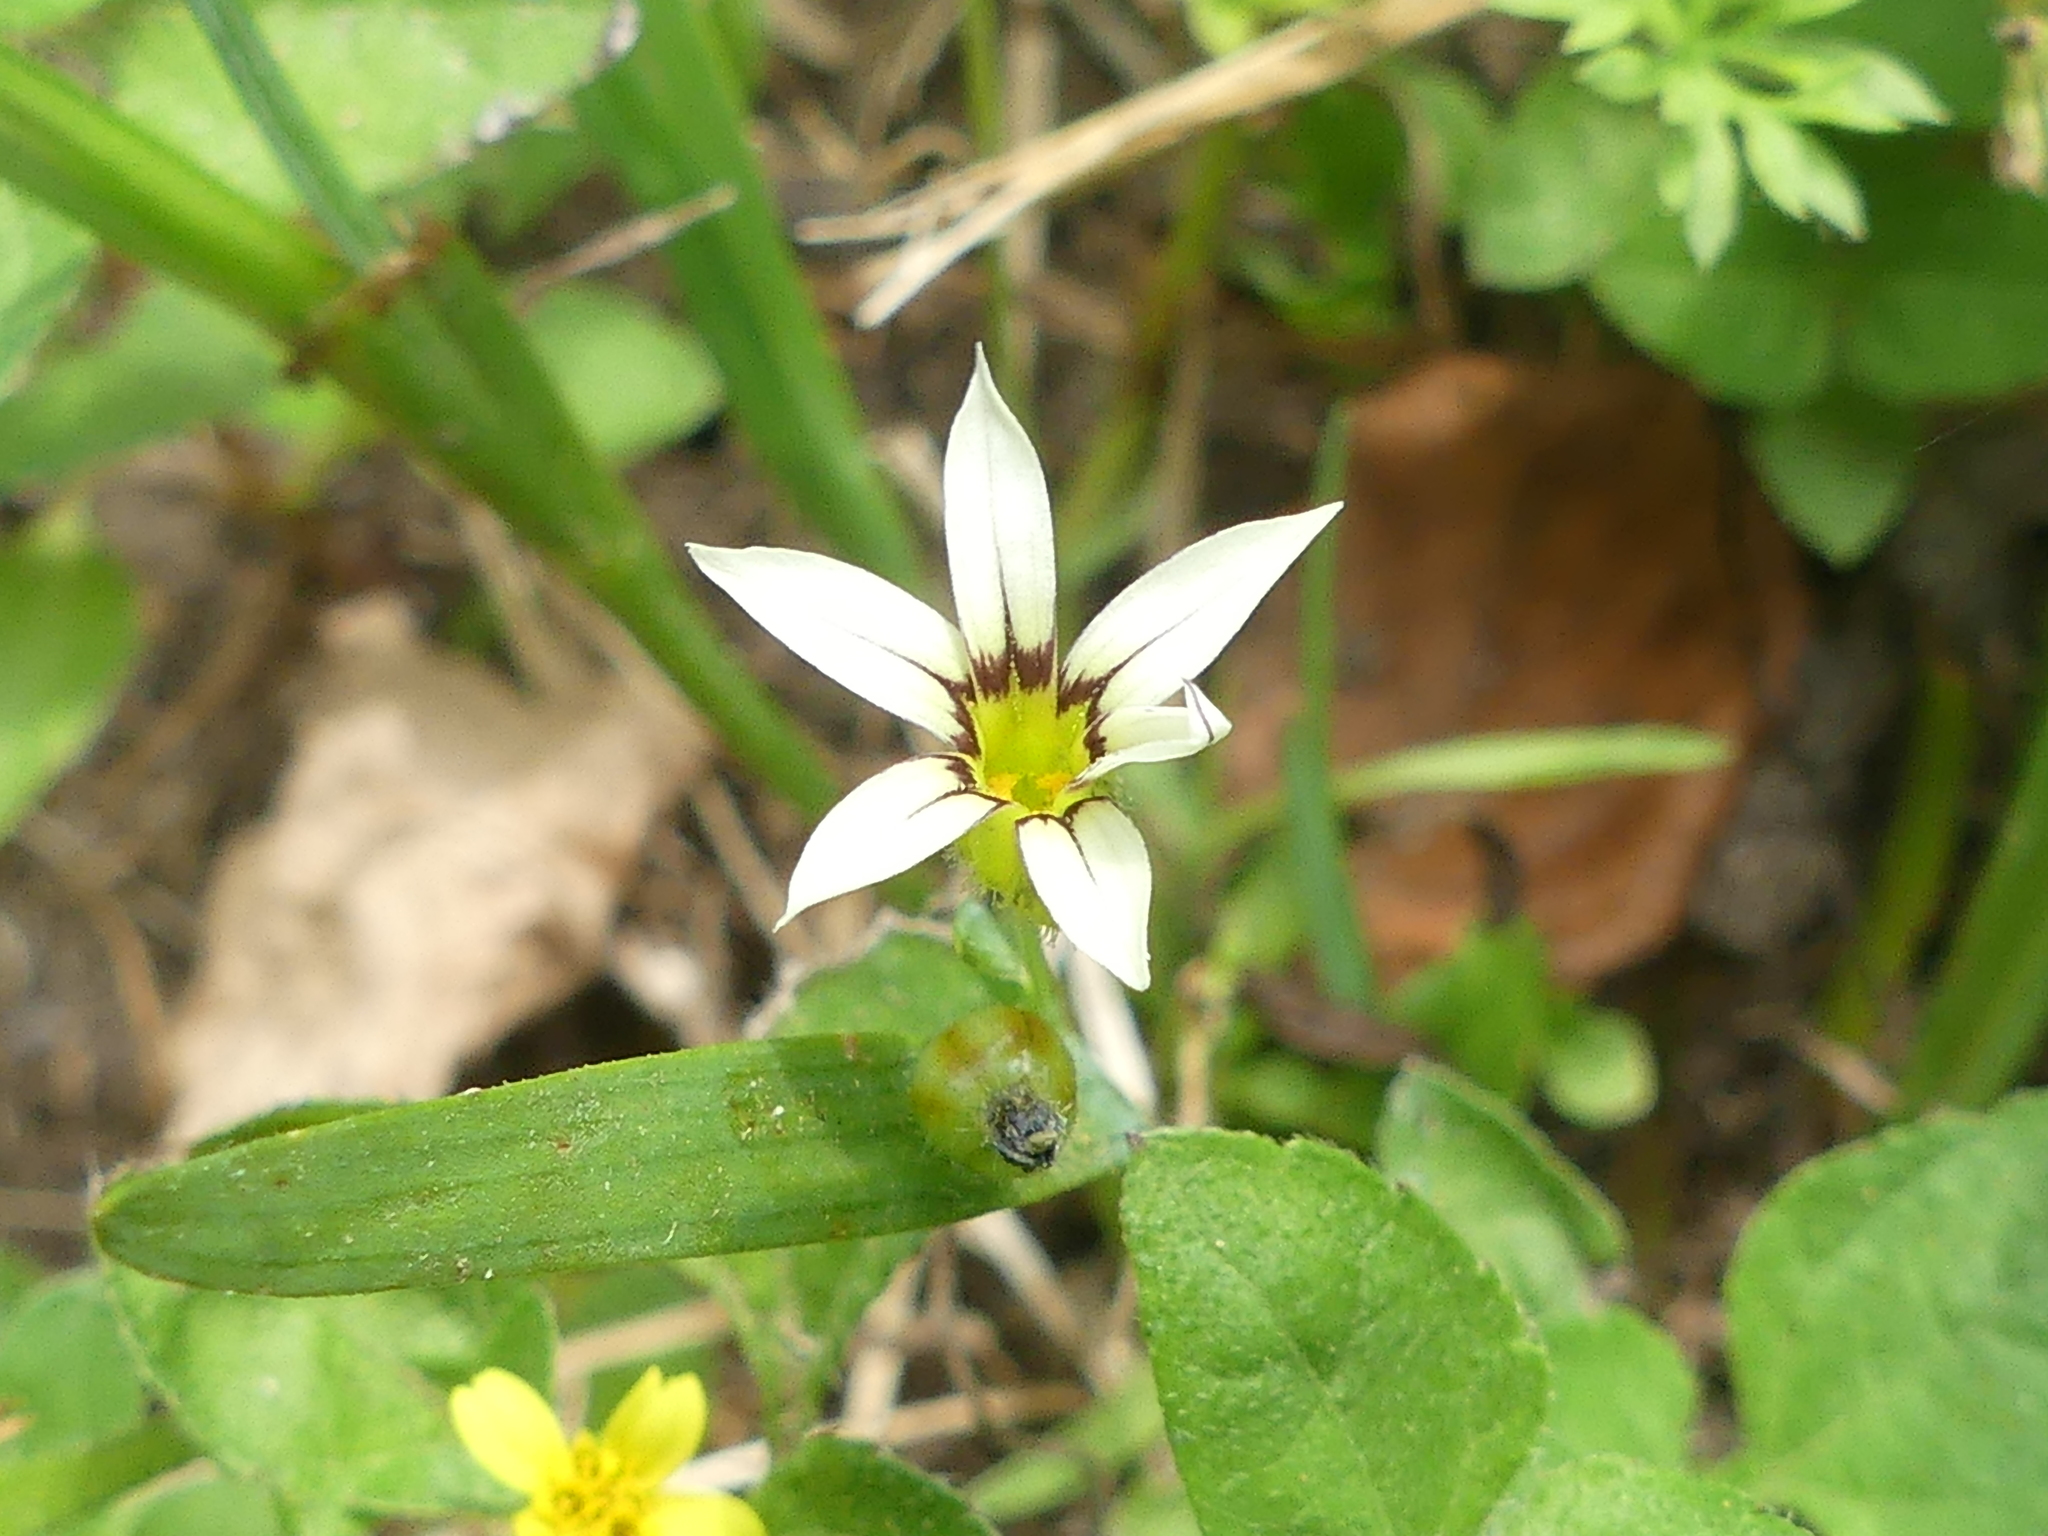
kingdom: Plantae
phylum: Tracheophyta
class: Liliopsida
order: Asparagales
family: Iridaceae
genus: Sisyrinchium
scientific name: Sisyrinchium micranthum
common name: Bermuda pigroot
